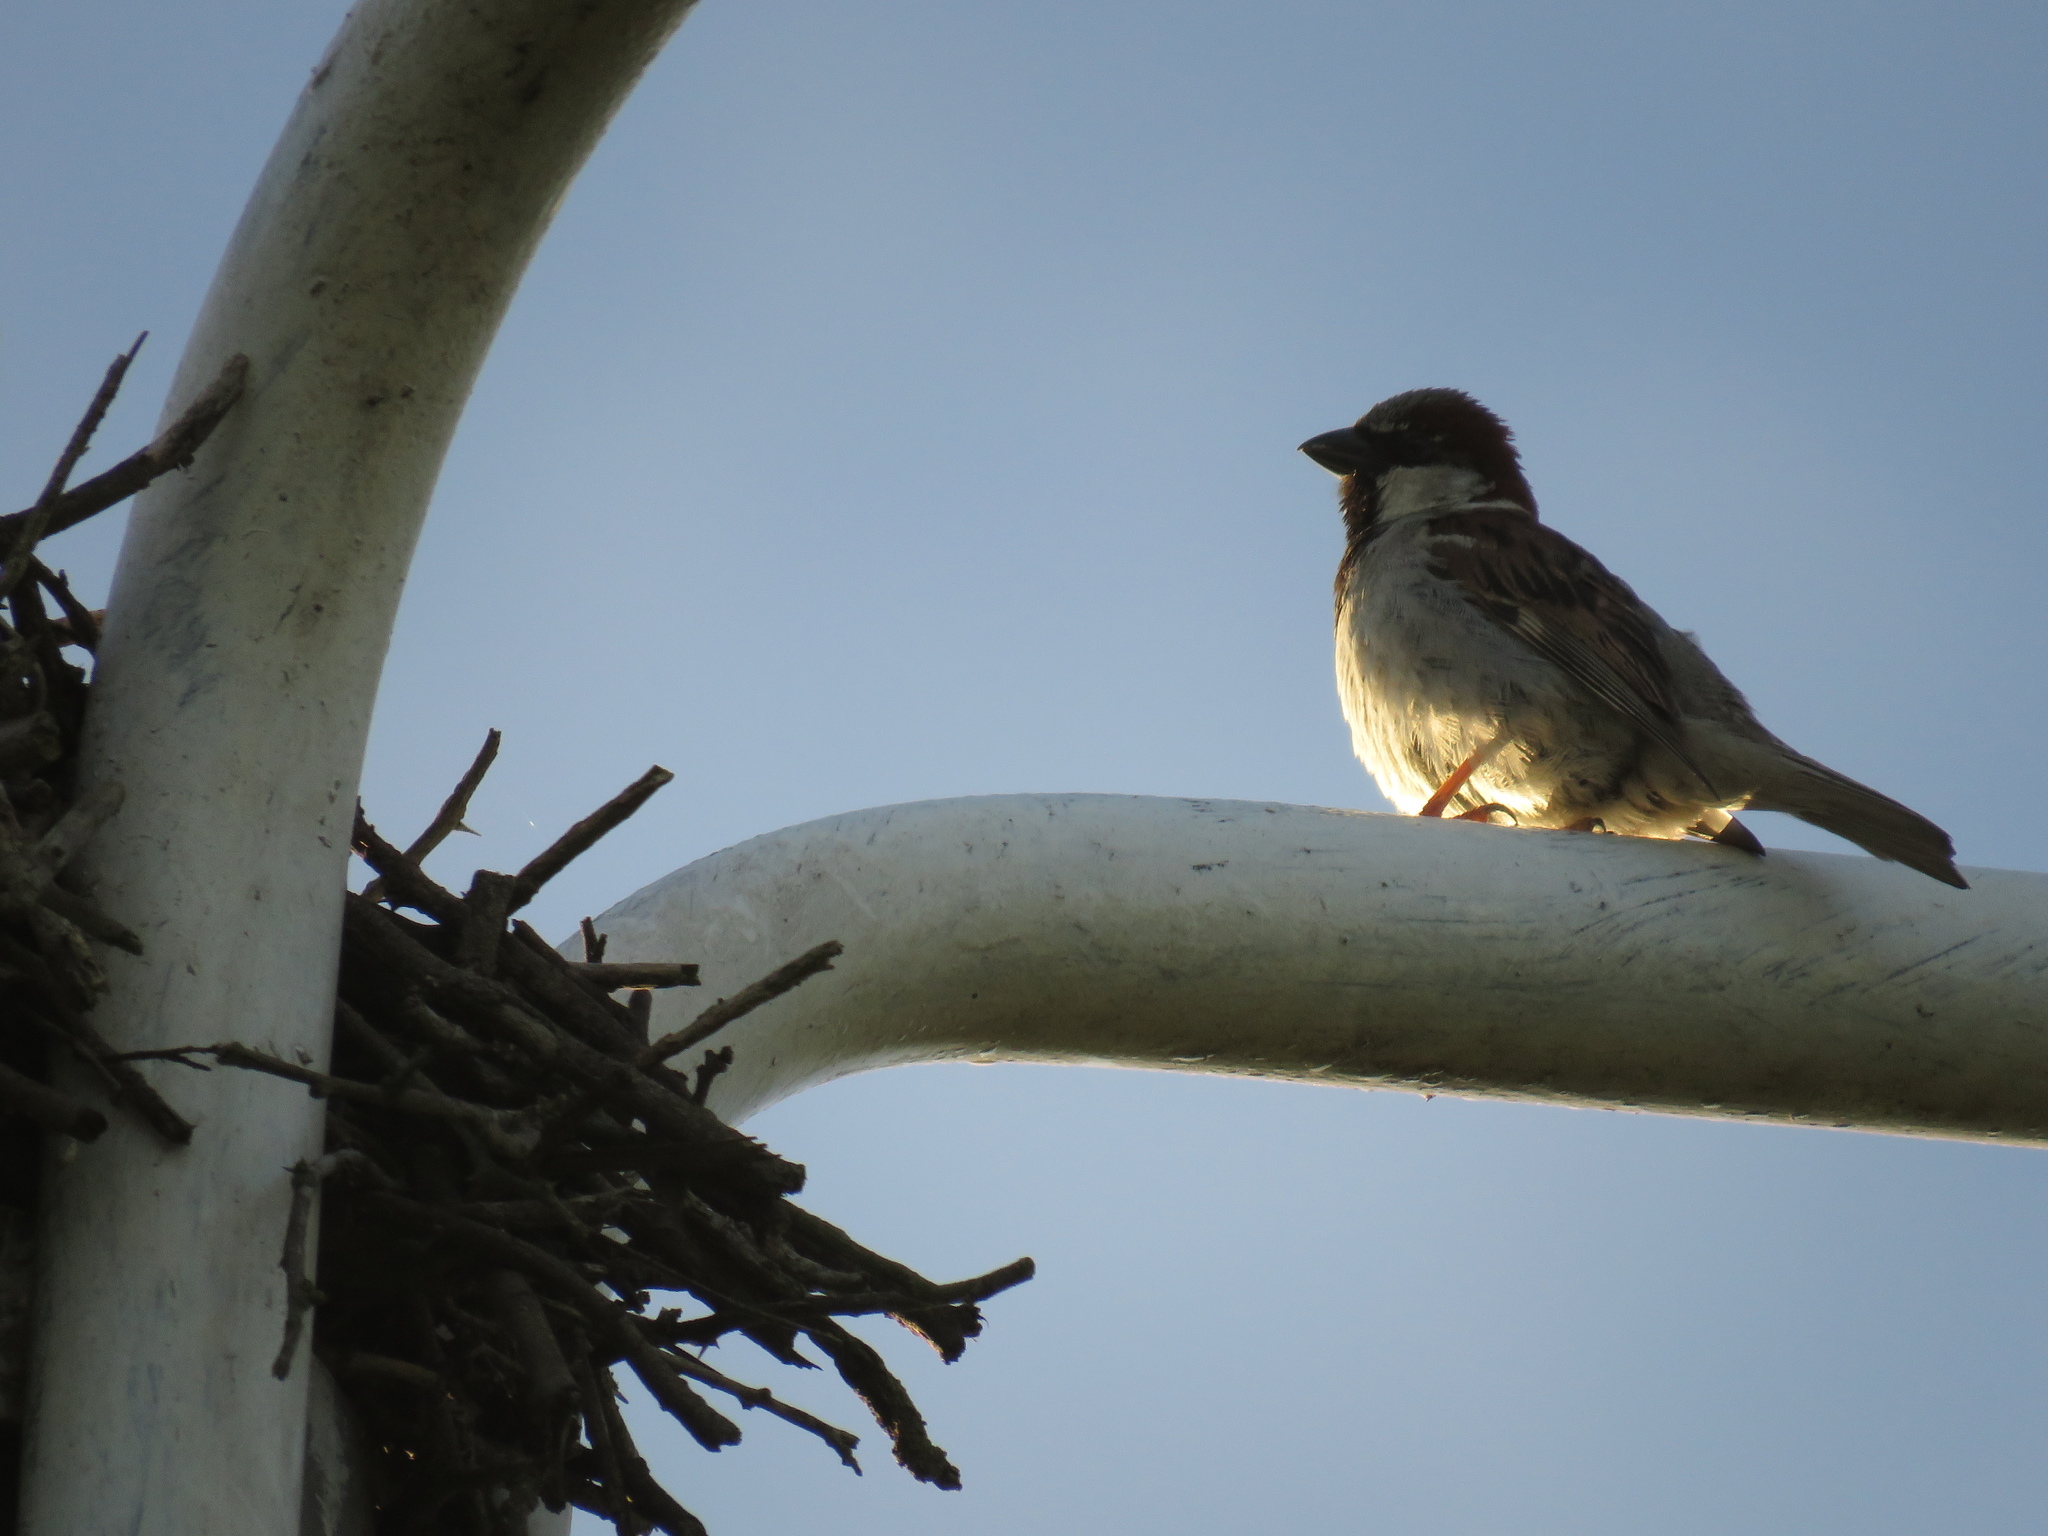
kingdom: Animalia
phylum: Chordata
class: Aves
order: Passeriformes
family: Passeridae
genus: Passer
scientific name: Passer domesticus
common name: House sparrow
